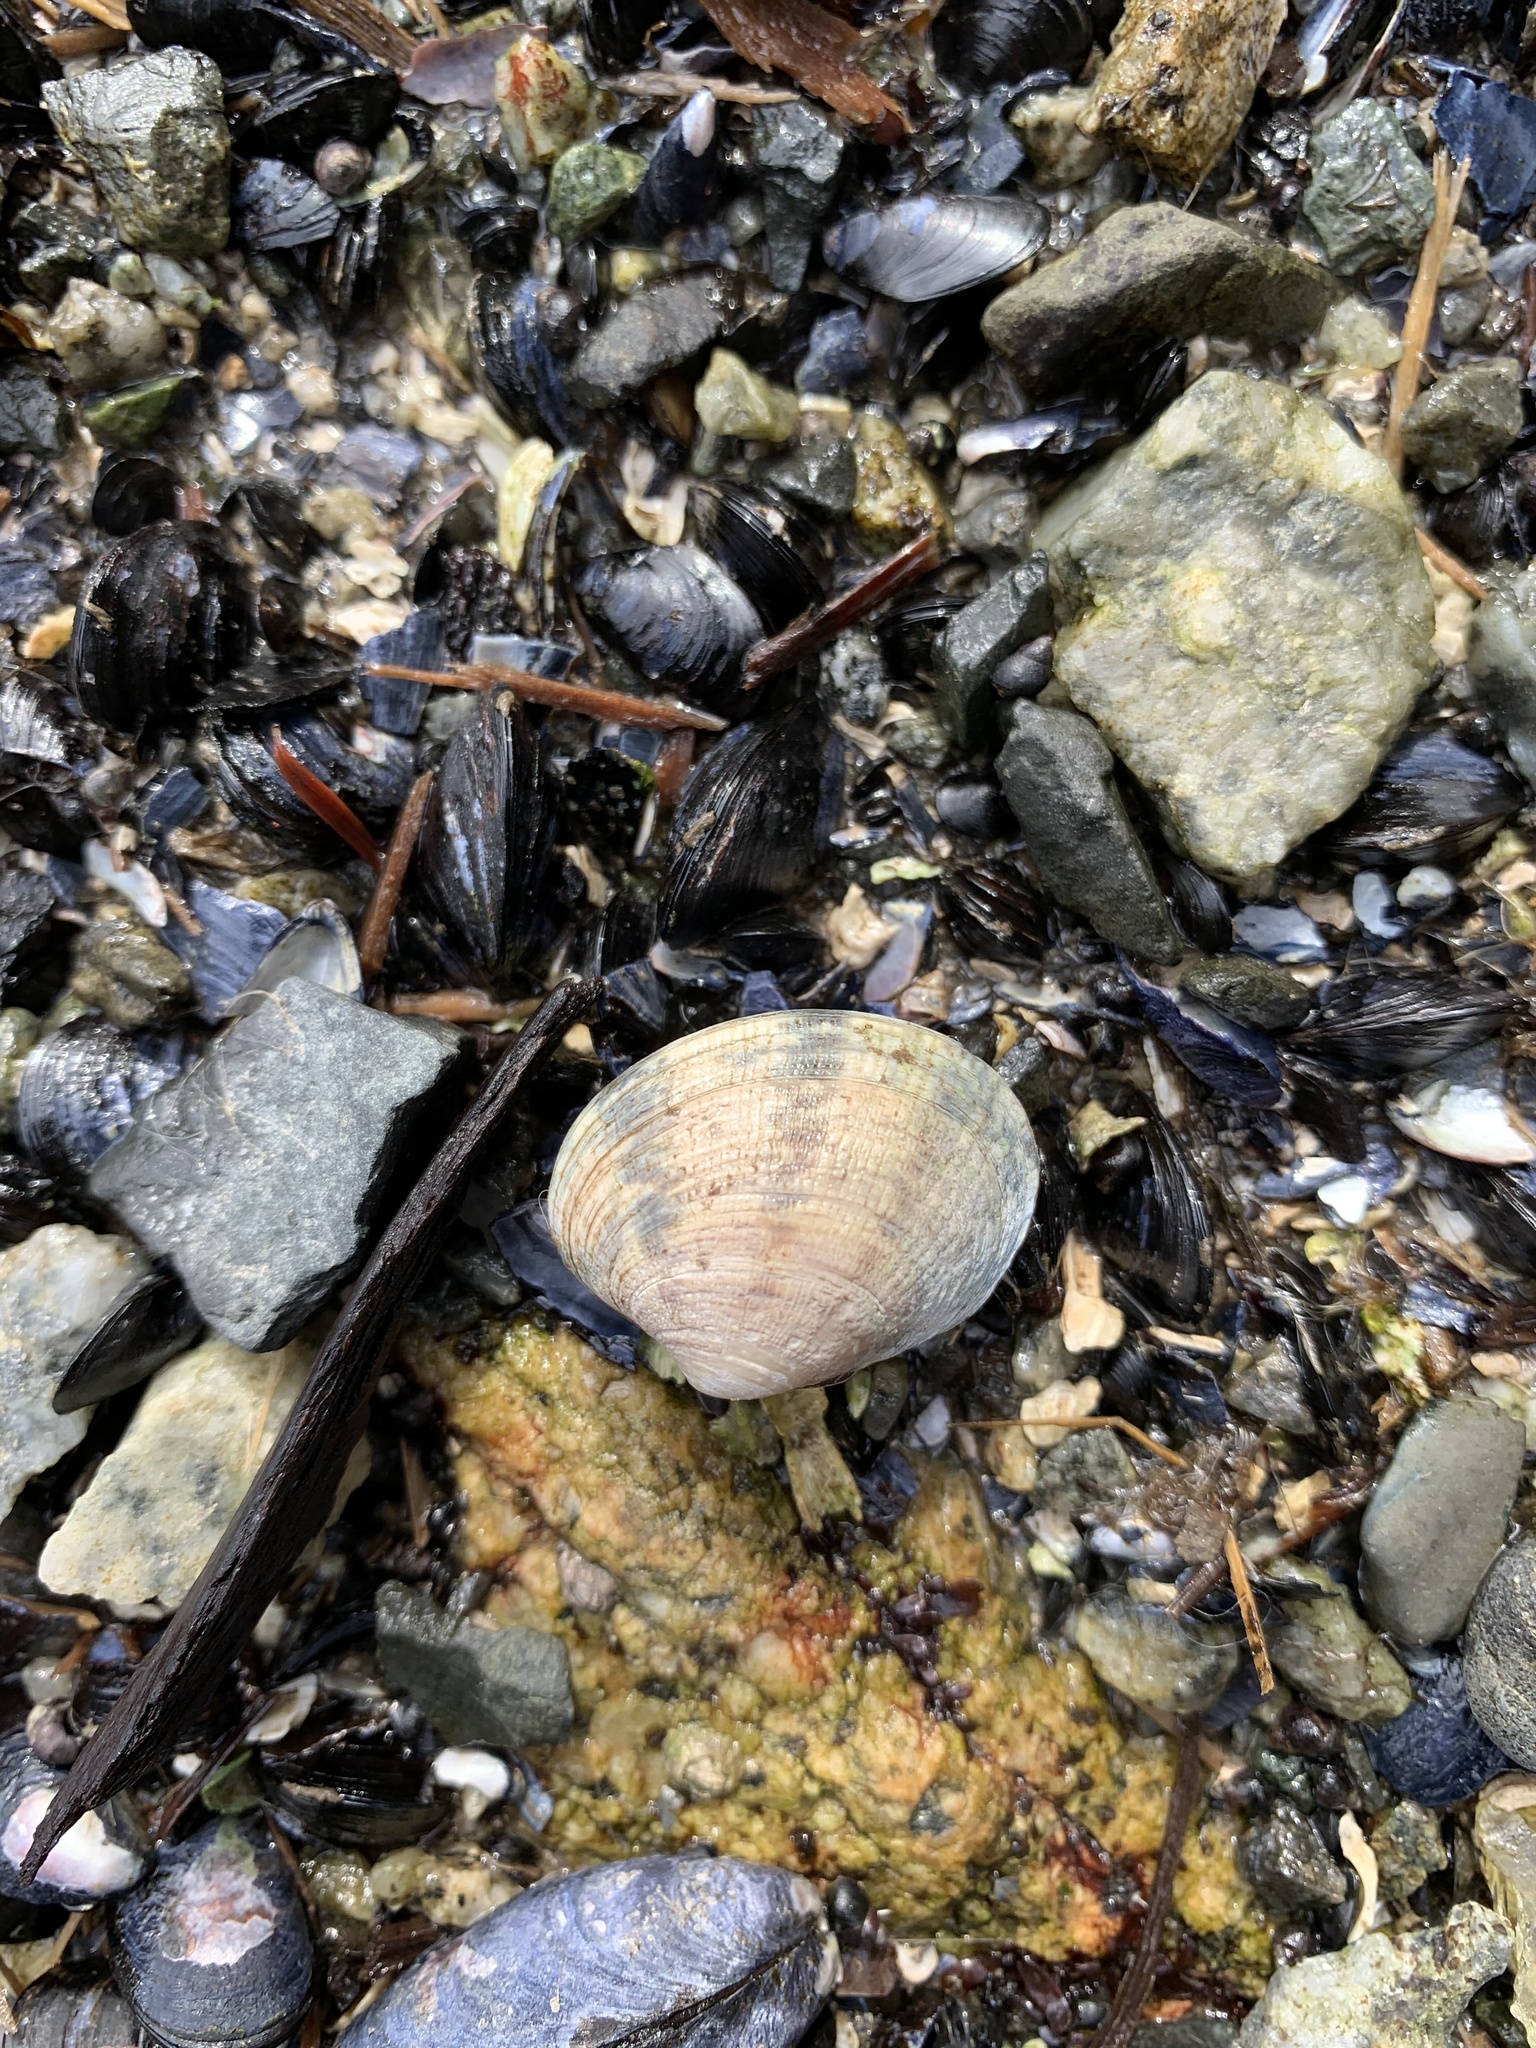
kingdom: Animalia
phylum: Mollusca
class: Bivalvia
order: Venerida
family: Veneridae
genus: Ruditapes
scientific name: Ruditapes philippinarum
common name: Manila clam
